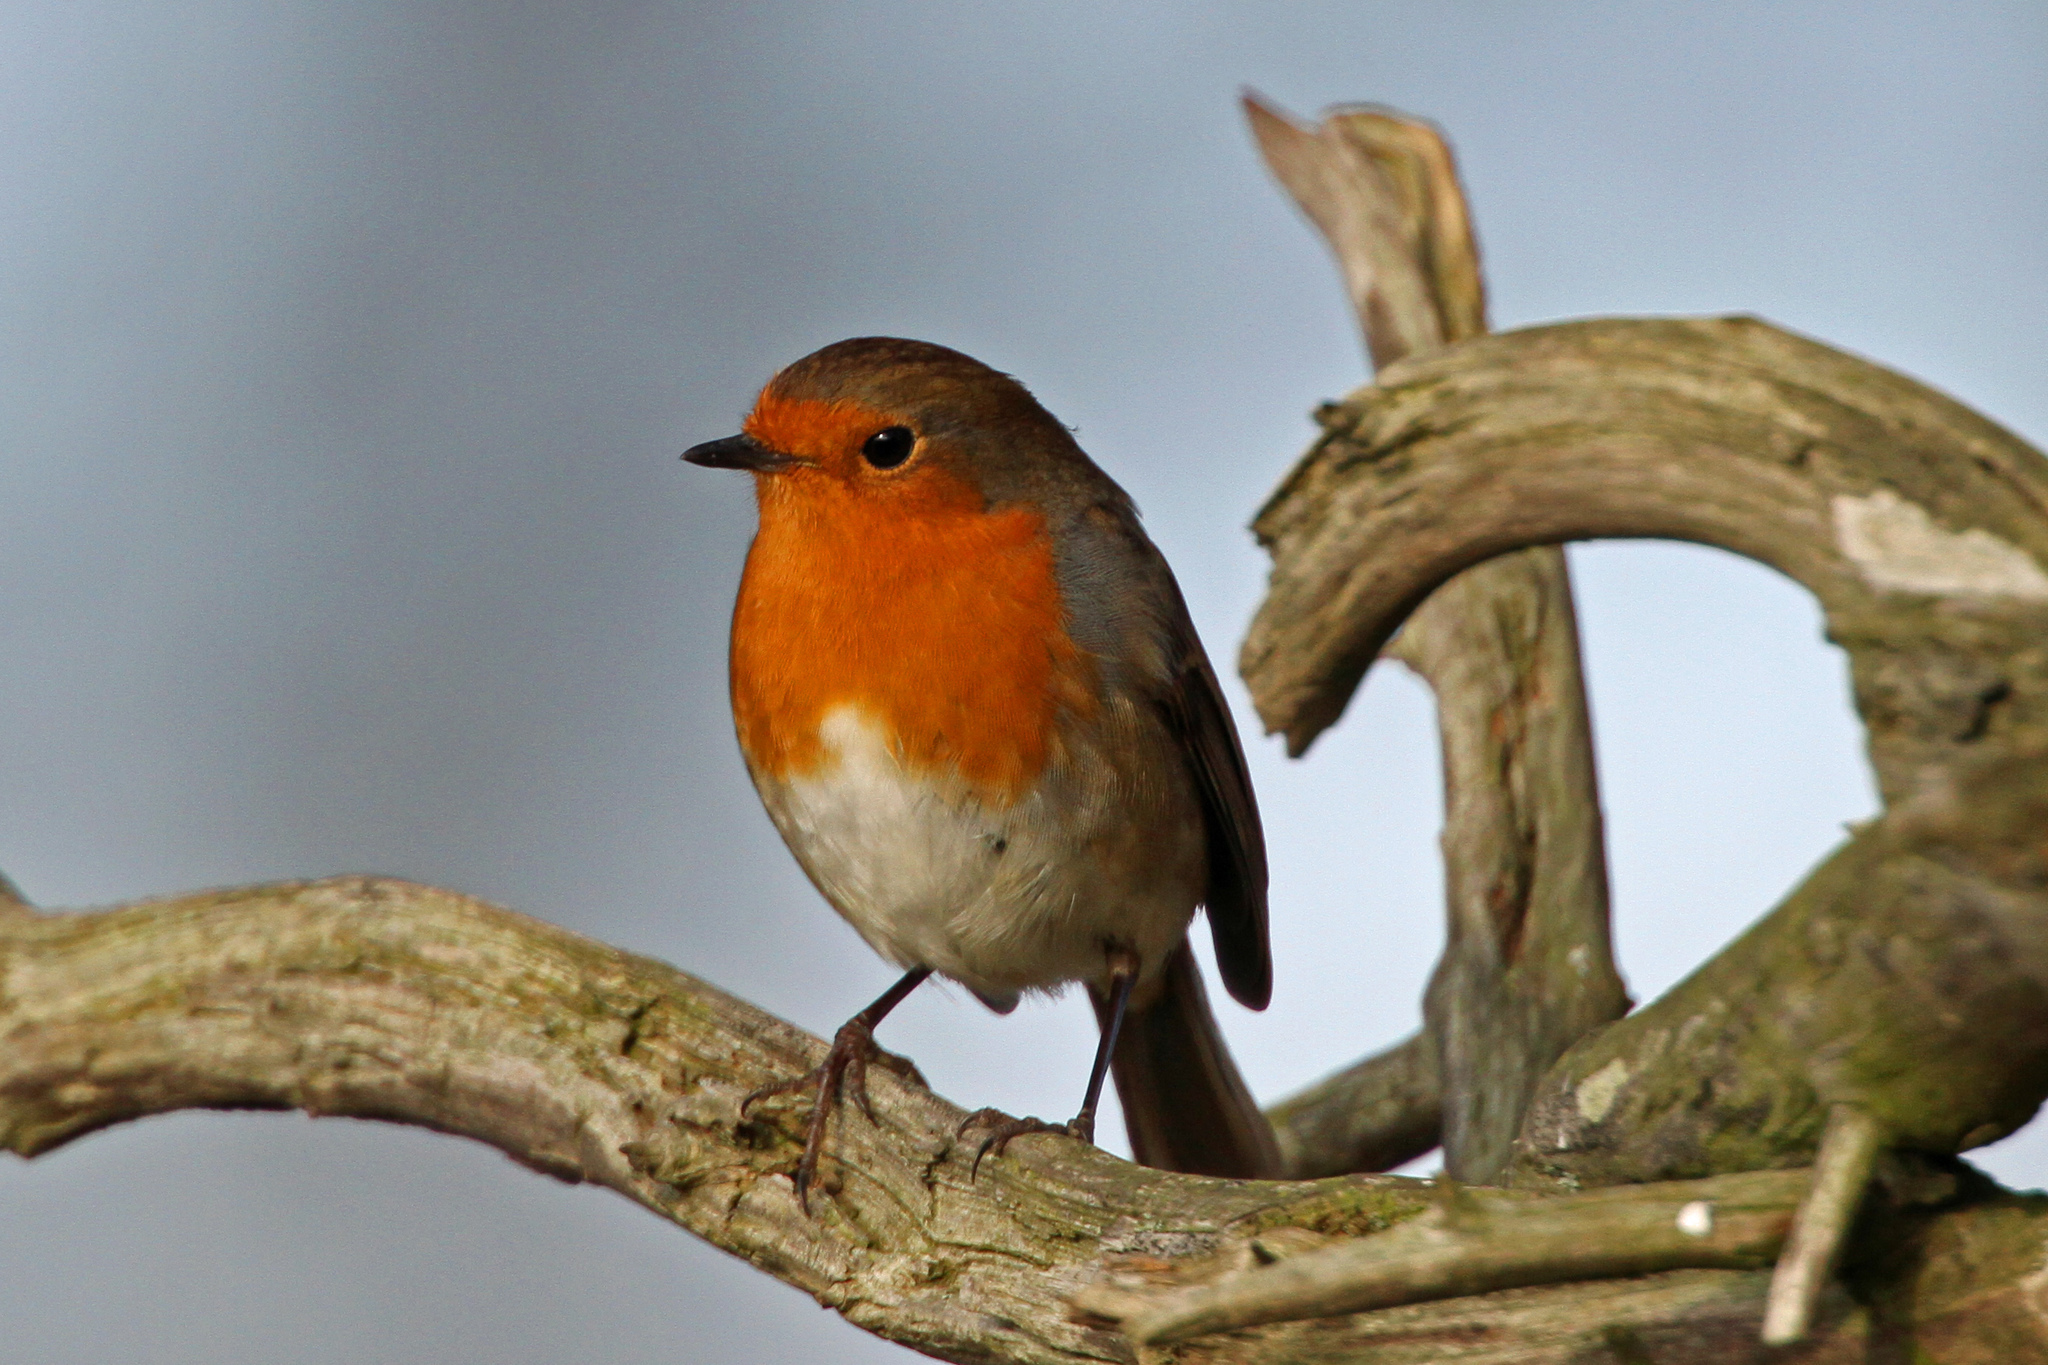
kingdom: Animalia
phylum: Chordata
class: Aves
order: Passeriformes
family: Muscicapidae
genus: Erithacus
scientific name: Erithacus rubecula
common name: European robin
